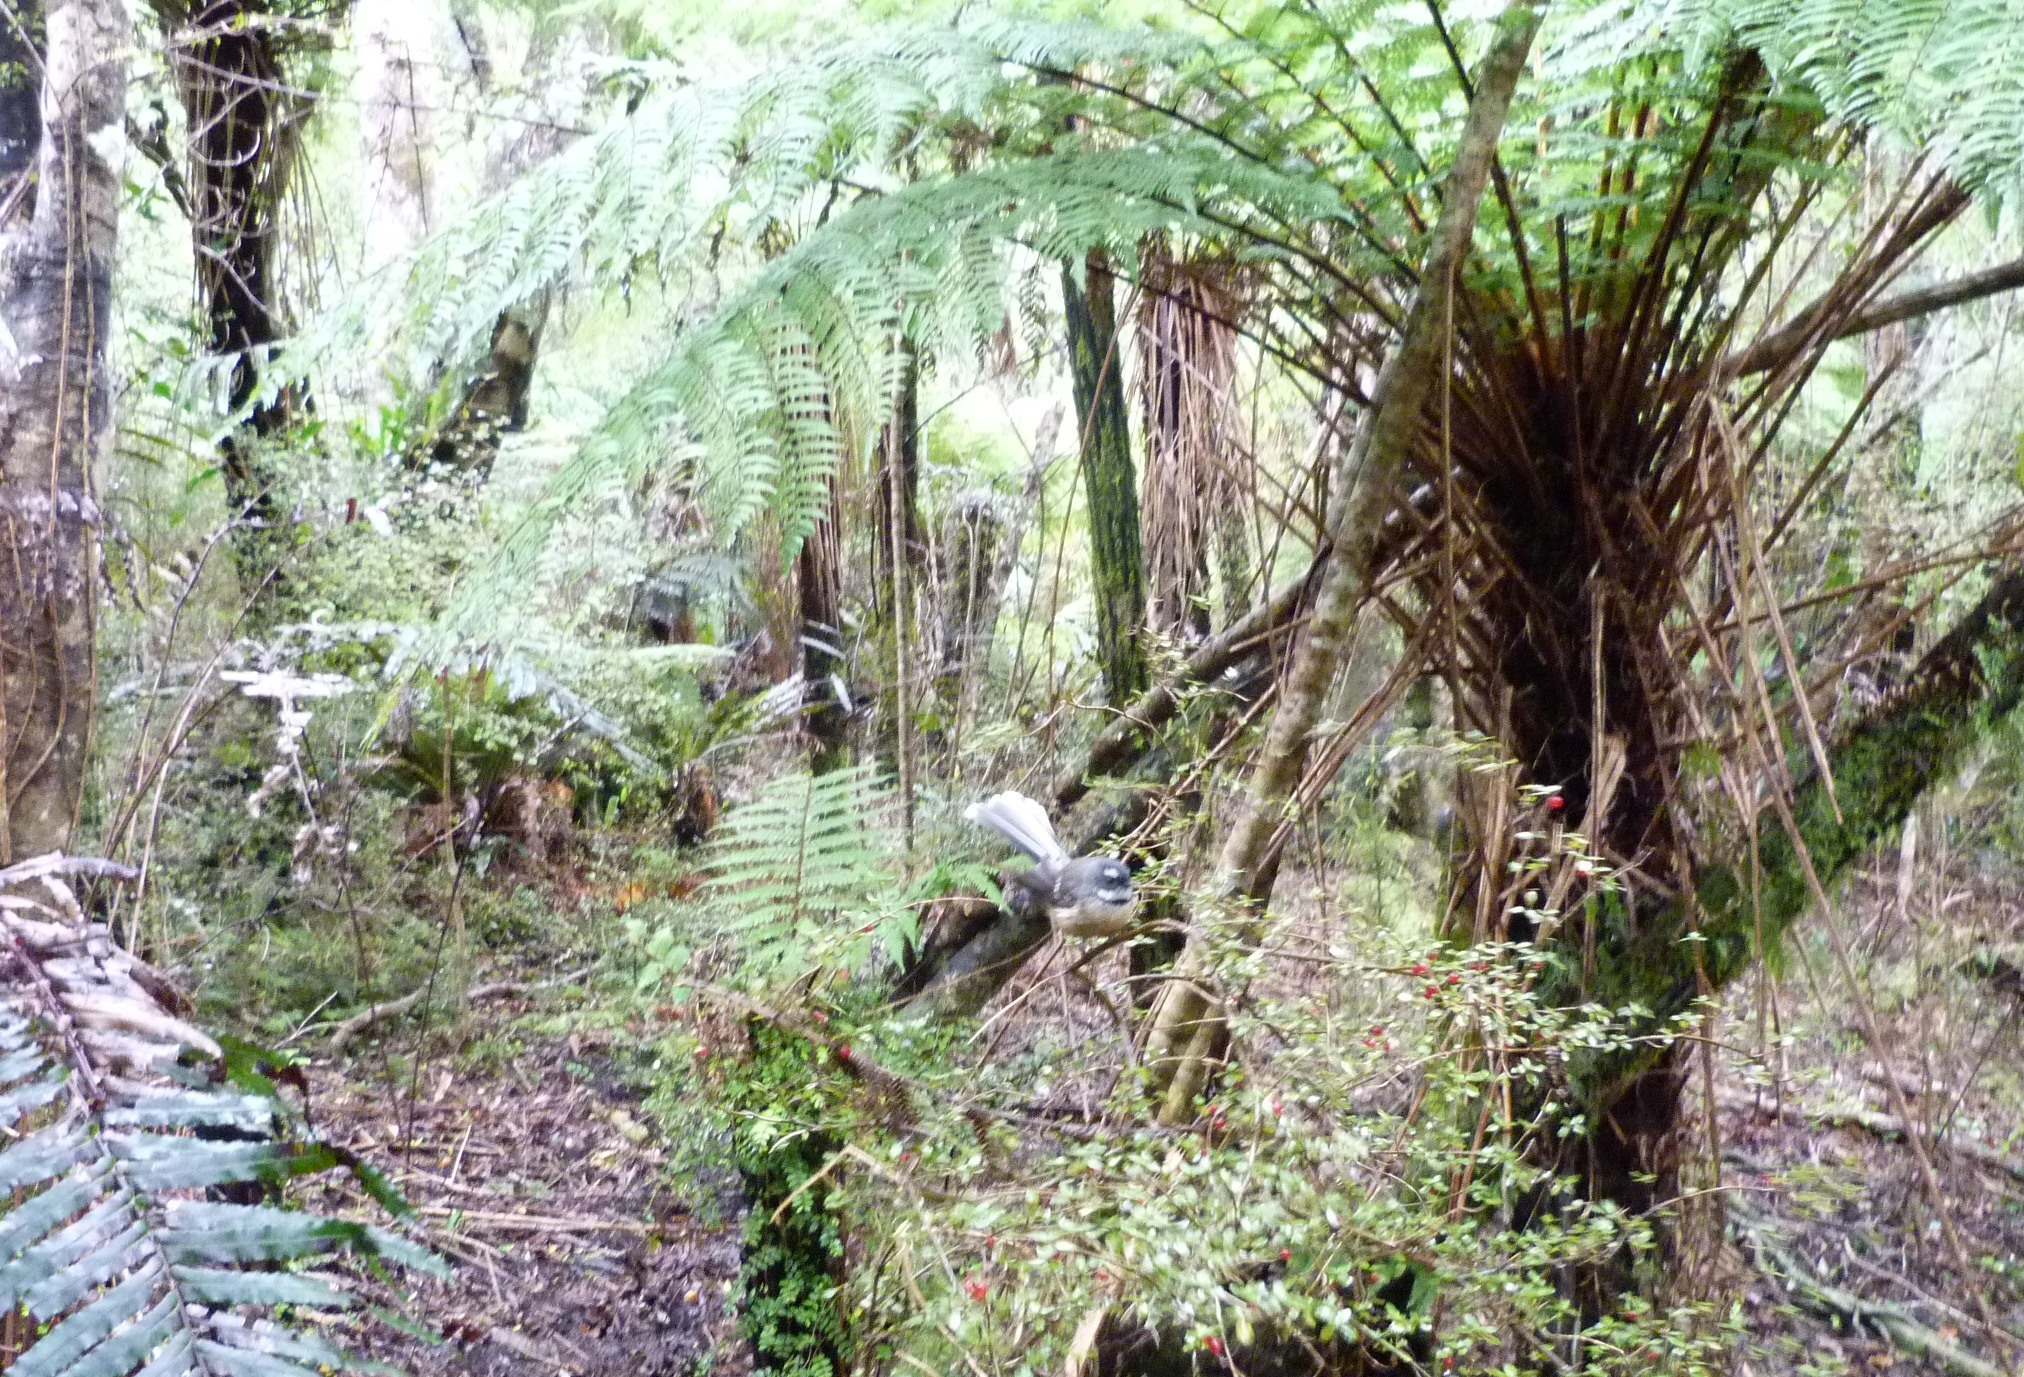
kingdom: Animalia
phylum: Chordata
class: Aves
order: Passeriformes
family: Rhipiduridae
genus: Rhipidura
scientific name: Rhipidura fuliginosa
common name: New zealand fantail
